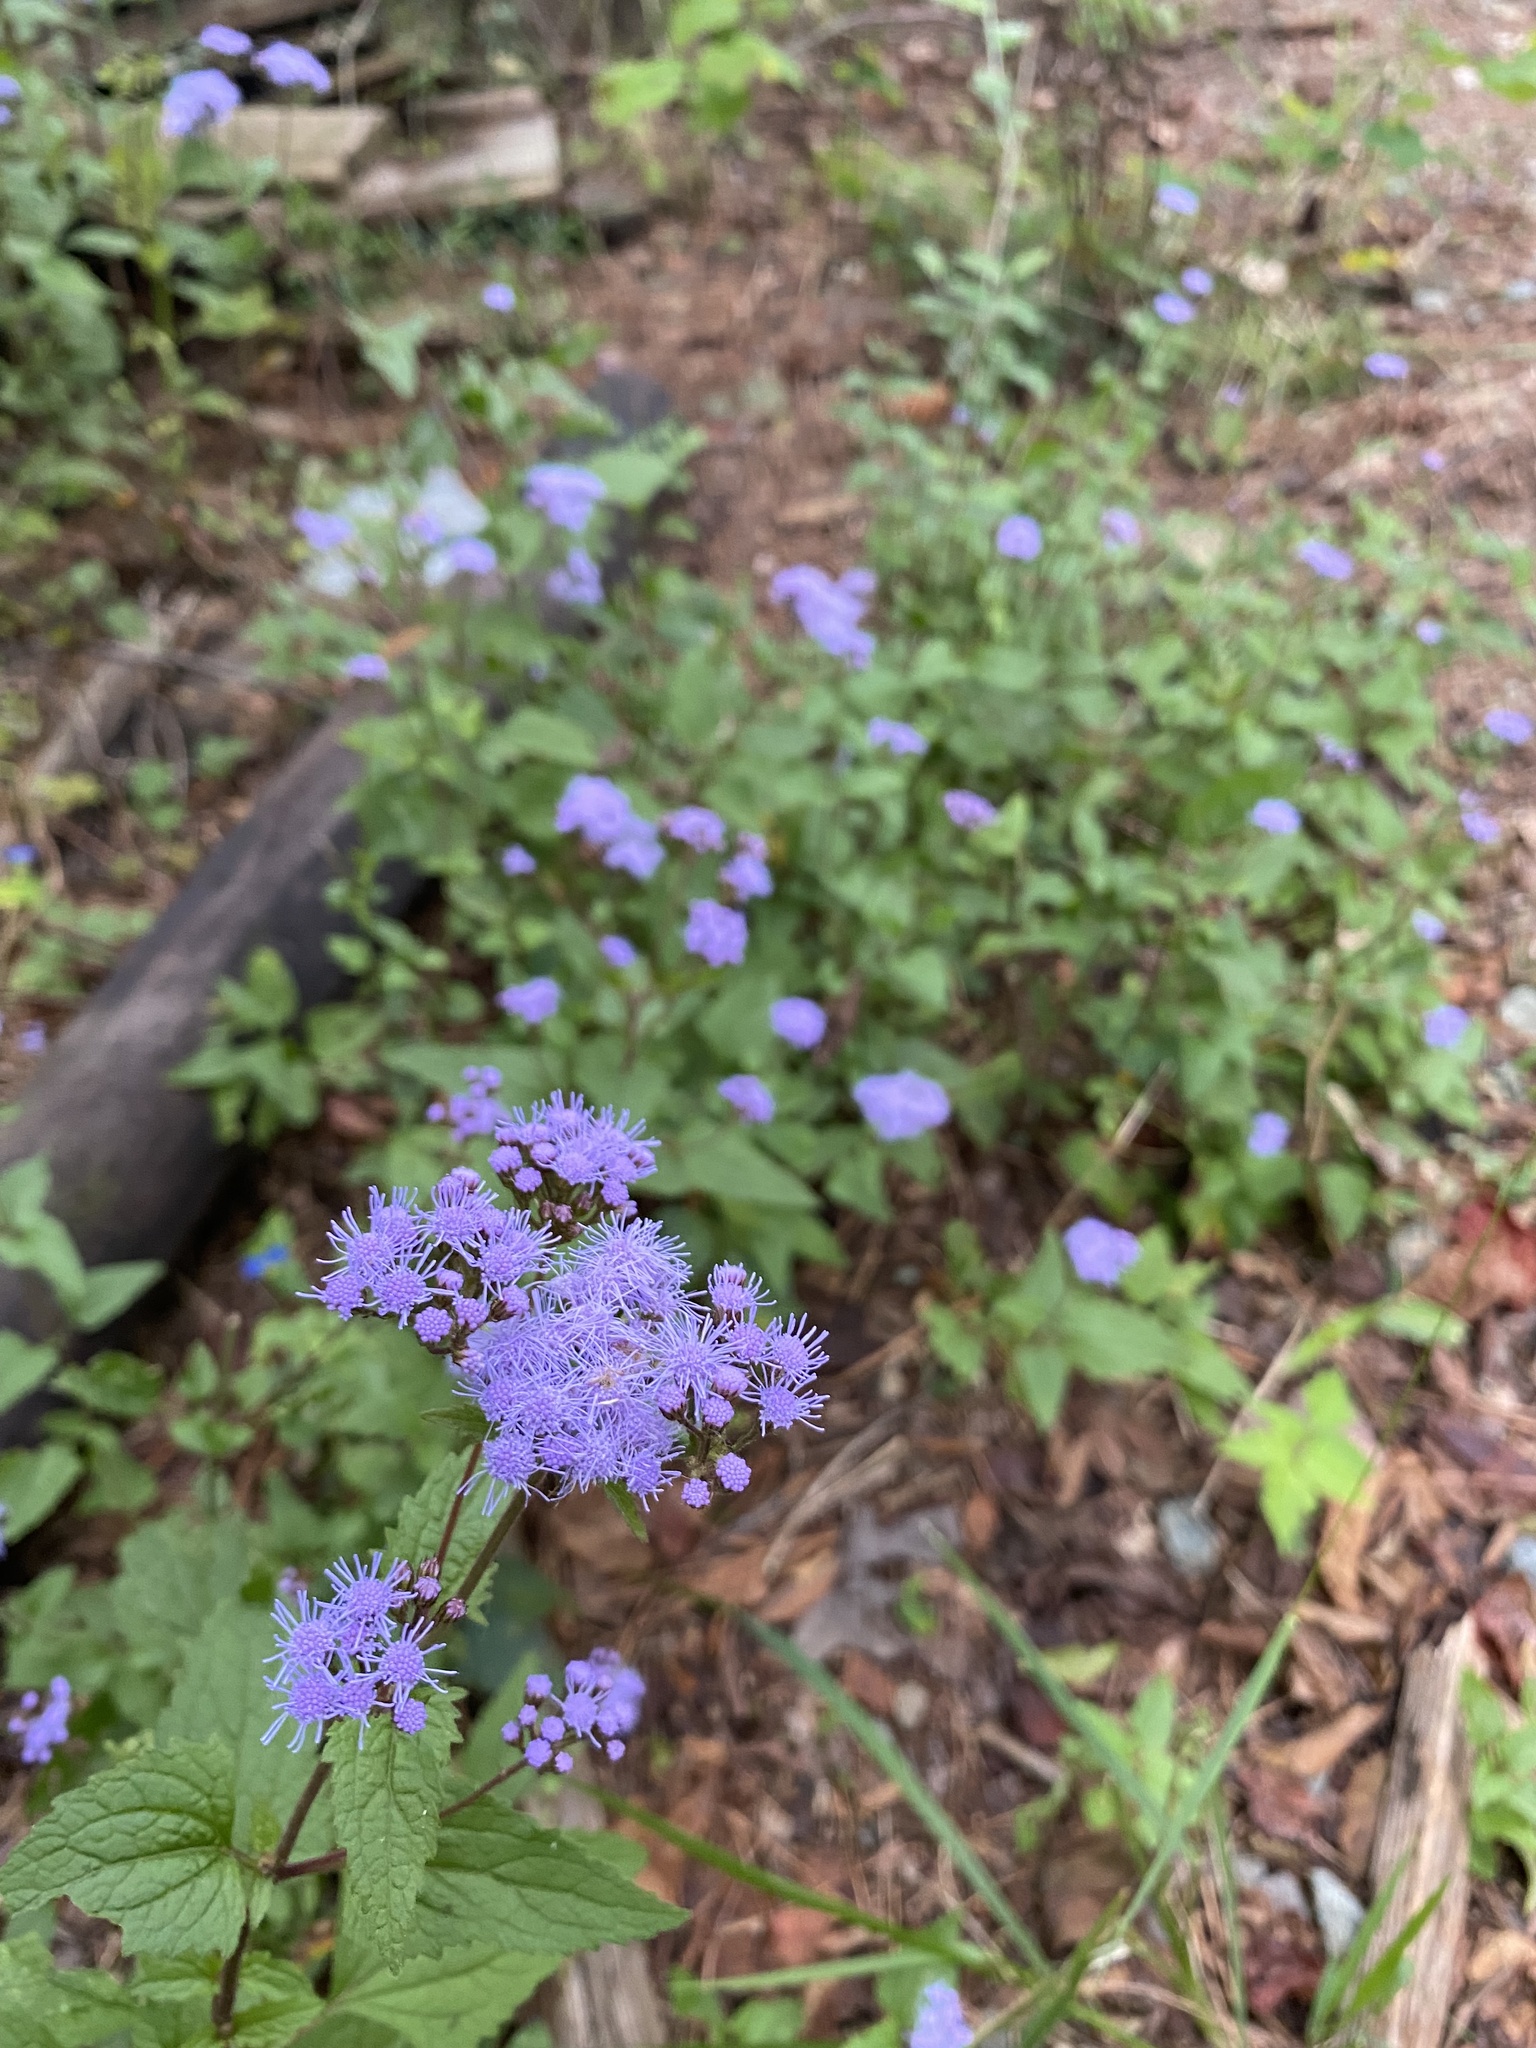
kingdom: Plantae
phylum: Tracheophyta
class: Magnoliopsida
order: Asterales
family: Asteraceae
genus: Conoclinium
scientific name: Conoclinium coelestinum
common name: Blue mistflower
